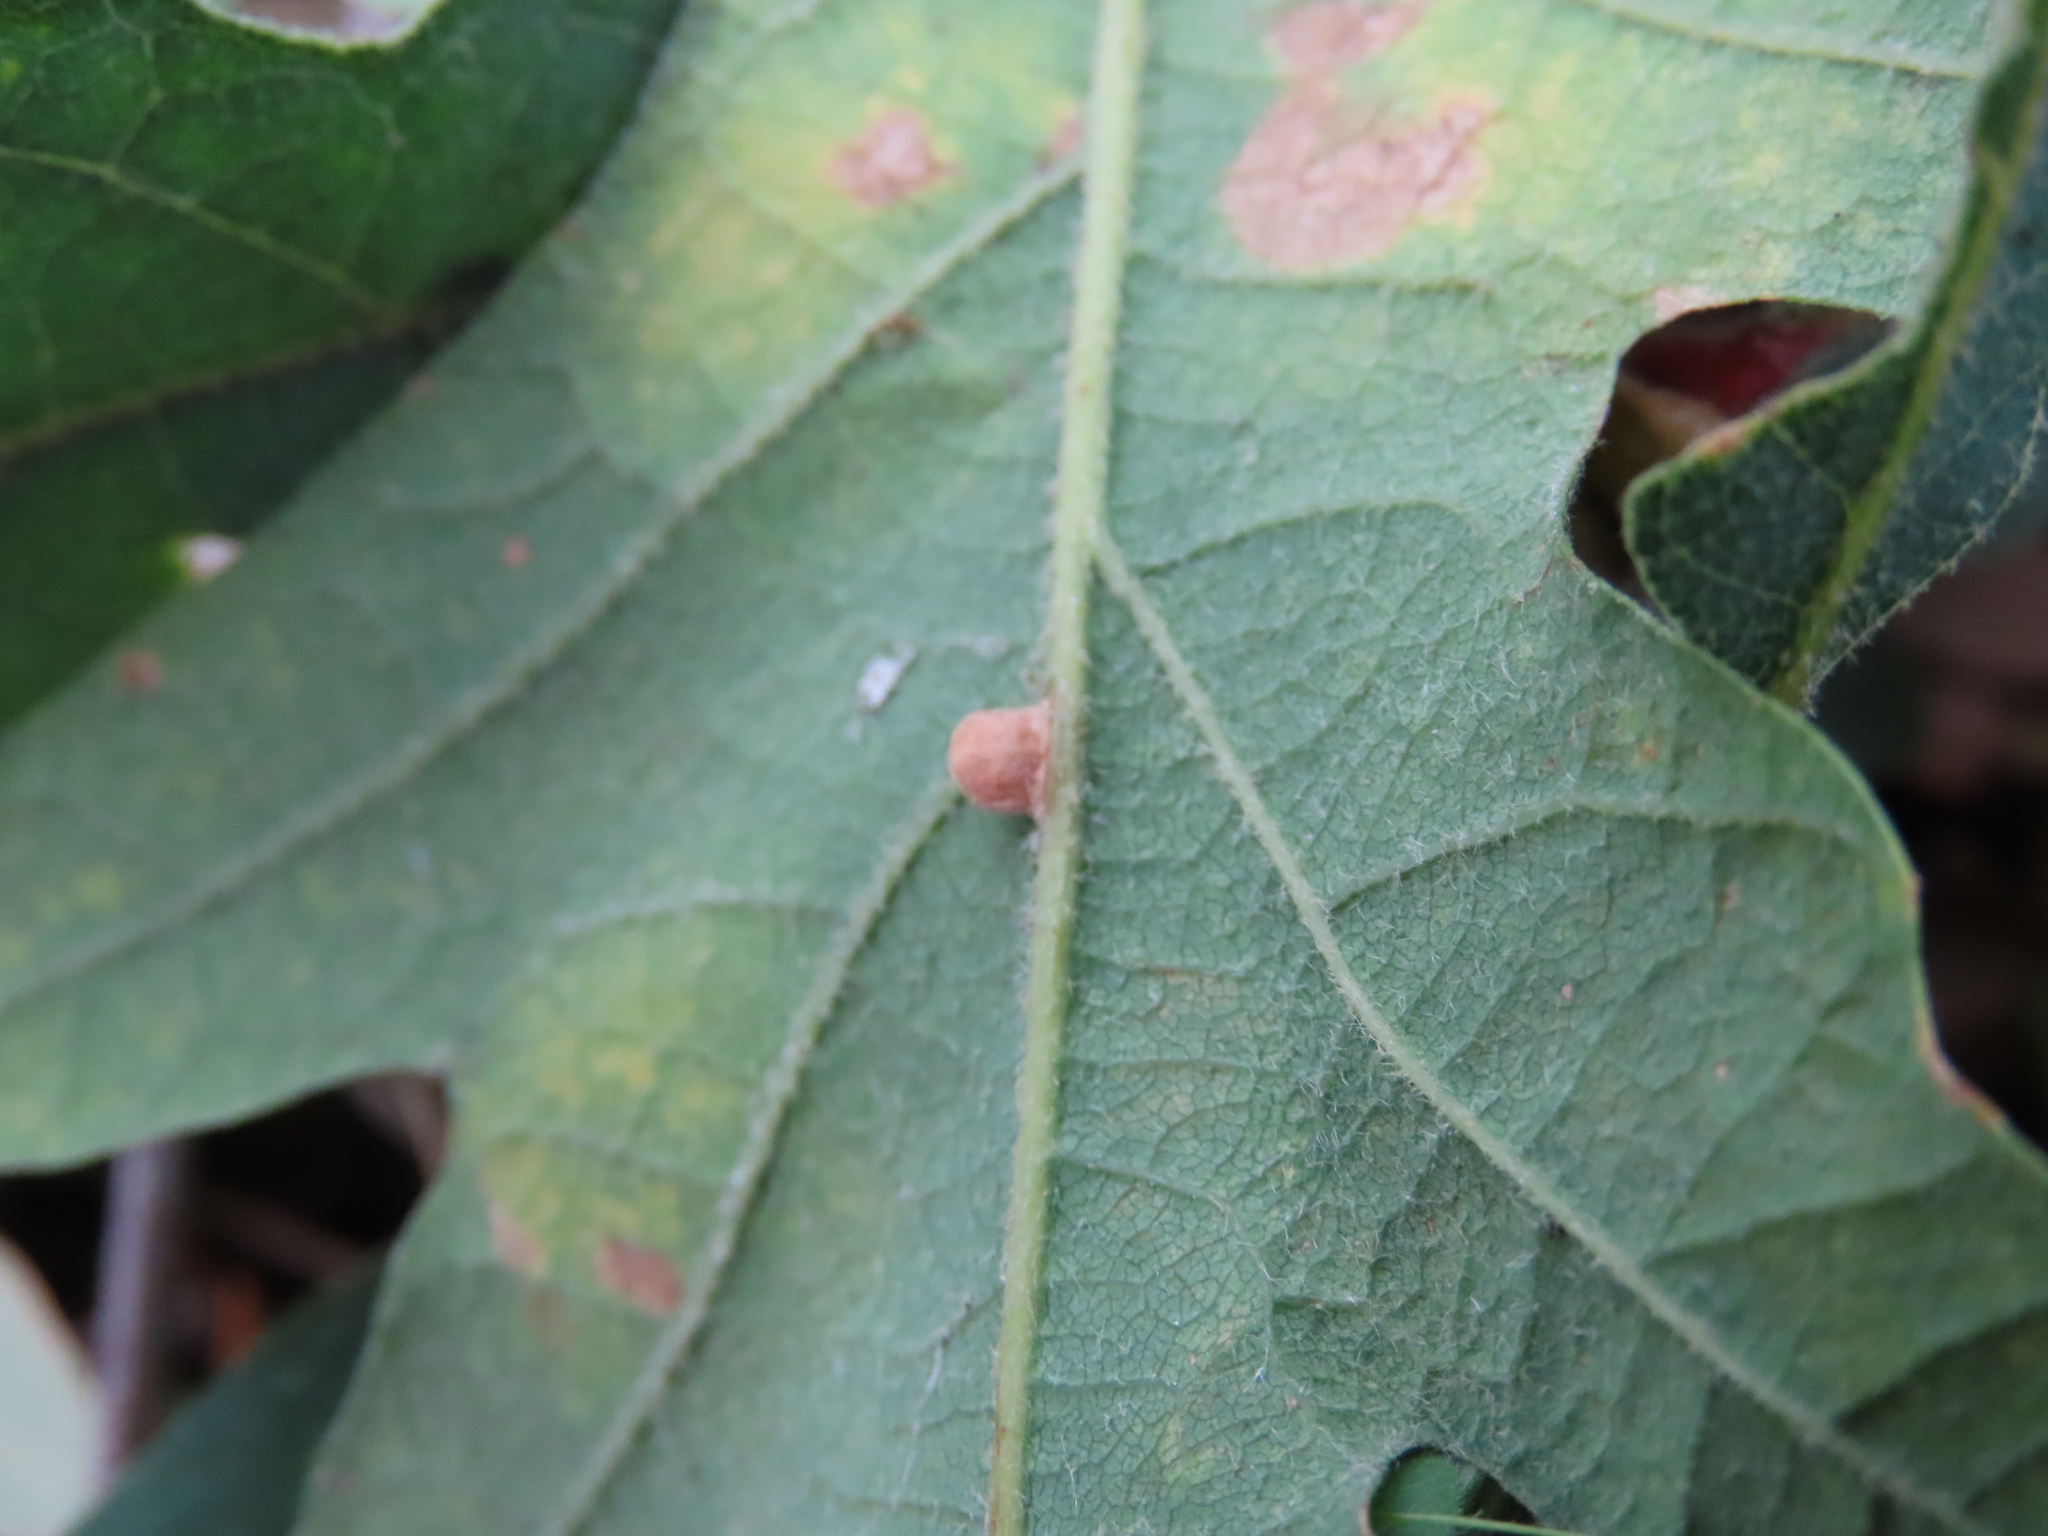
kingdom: Animalia
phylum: Arthropoda
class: Insecta
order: Hymenoptera
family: Cynipidae
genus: Neuroterus
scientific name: Neuroterus anthracinus
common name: Oyster gall
